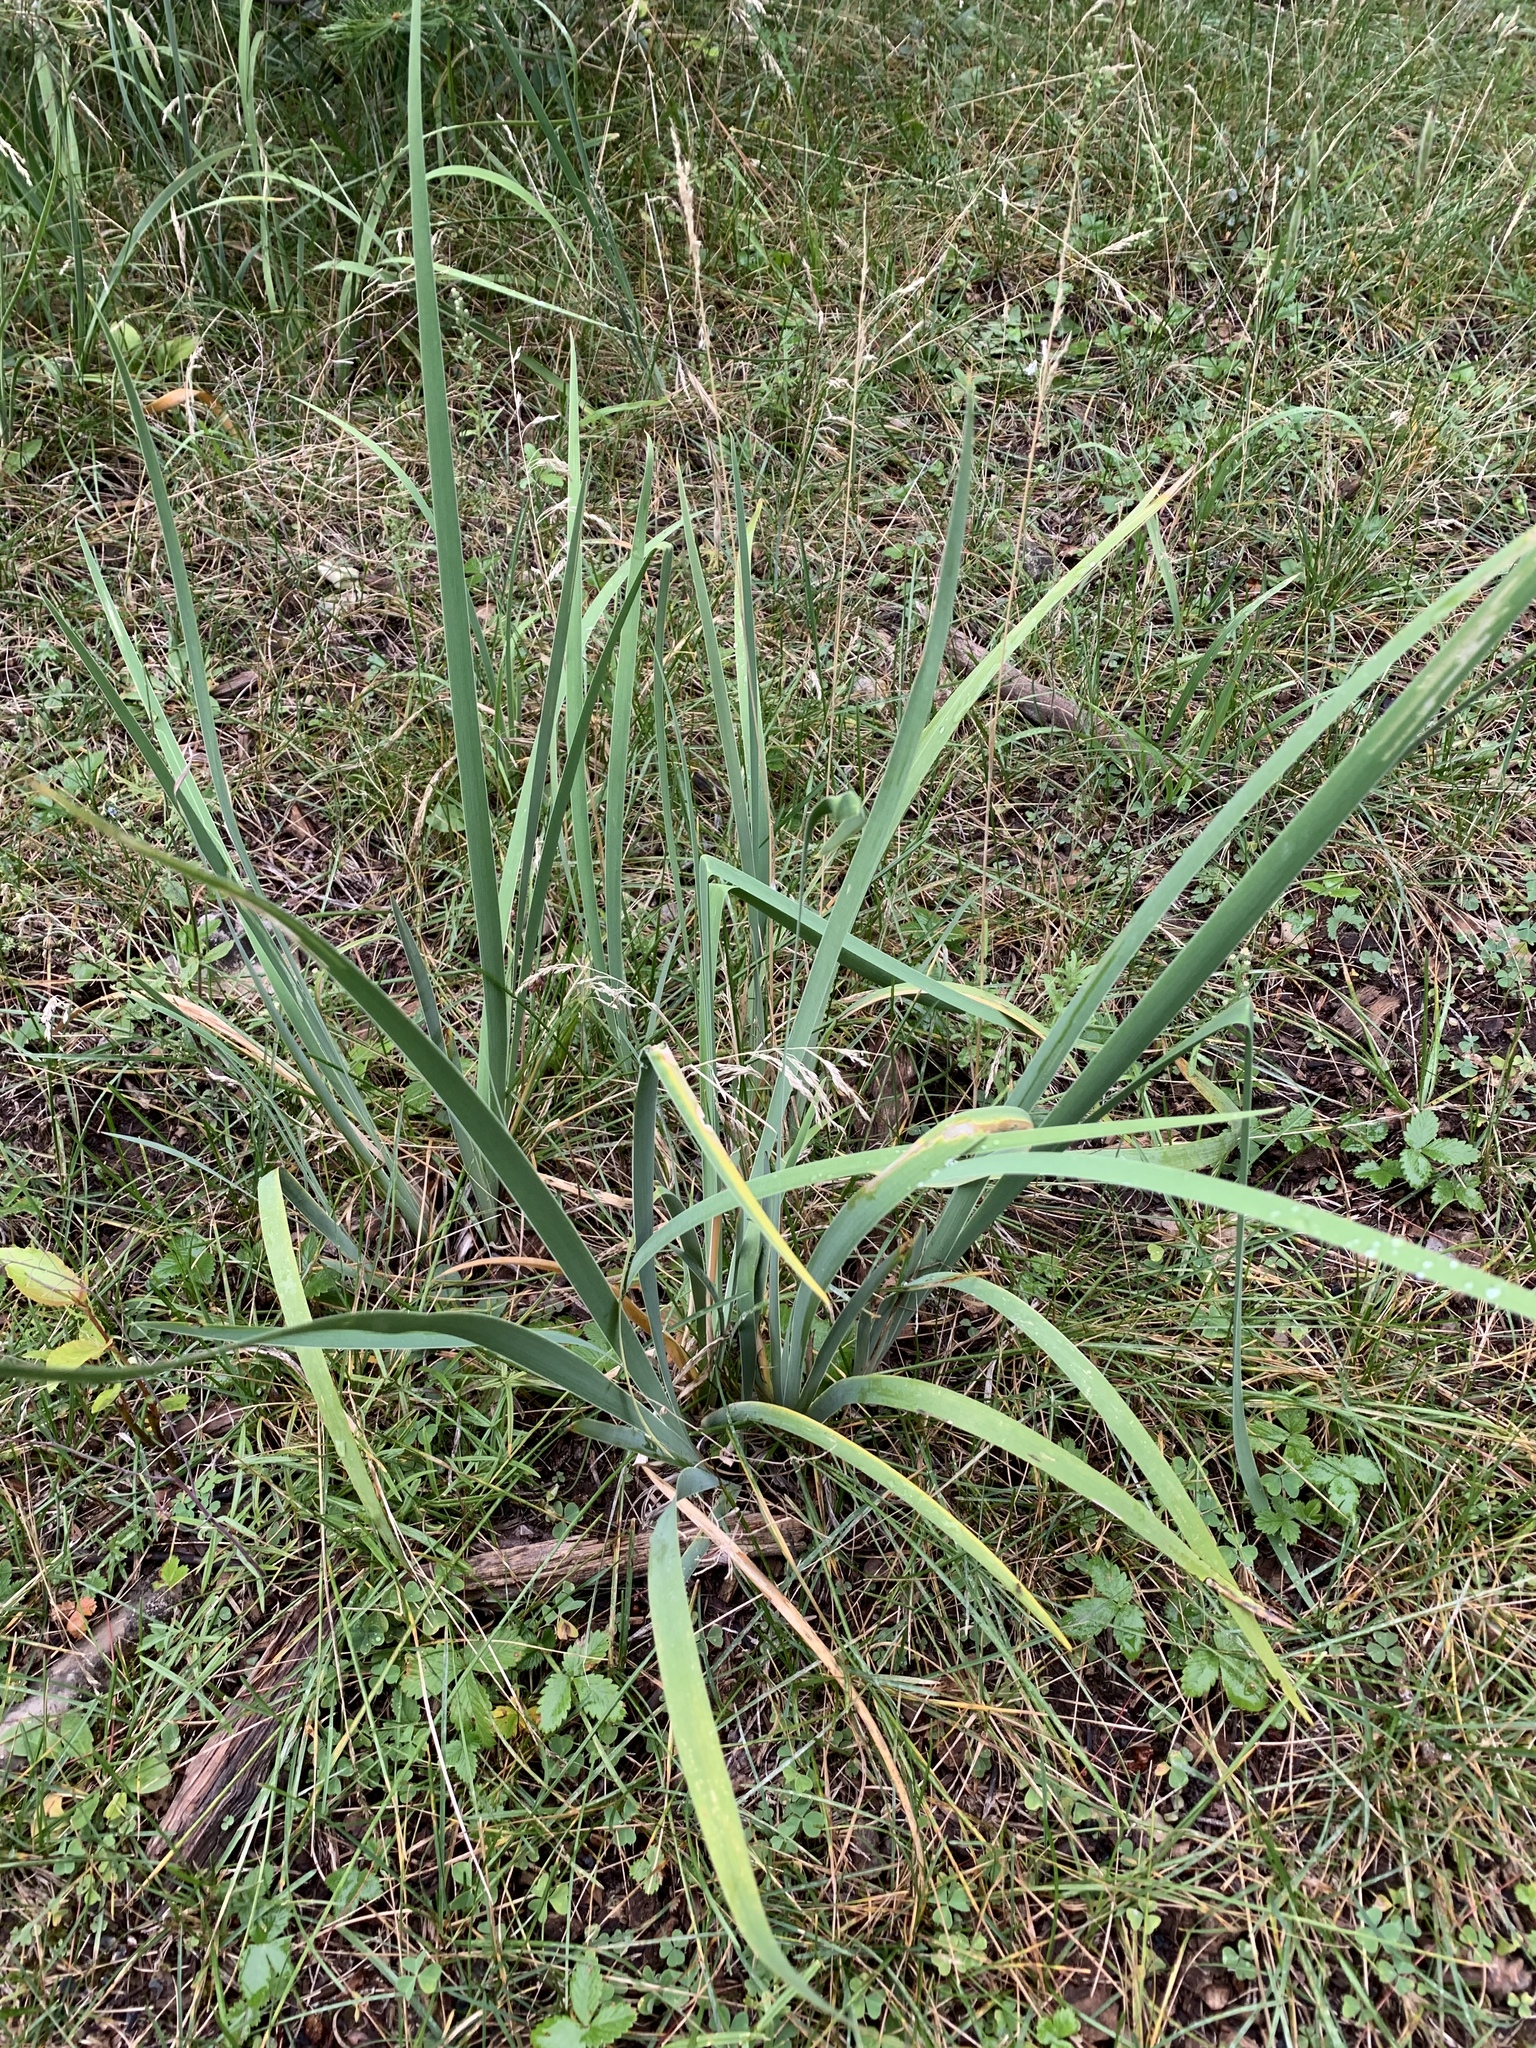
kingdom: Plantae
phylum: Tracheophyta
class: Liliopsida
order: Asparagales
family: Iridaceae
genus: Iris
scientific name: Iris missouriensis
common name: Rocky mountain iris
